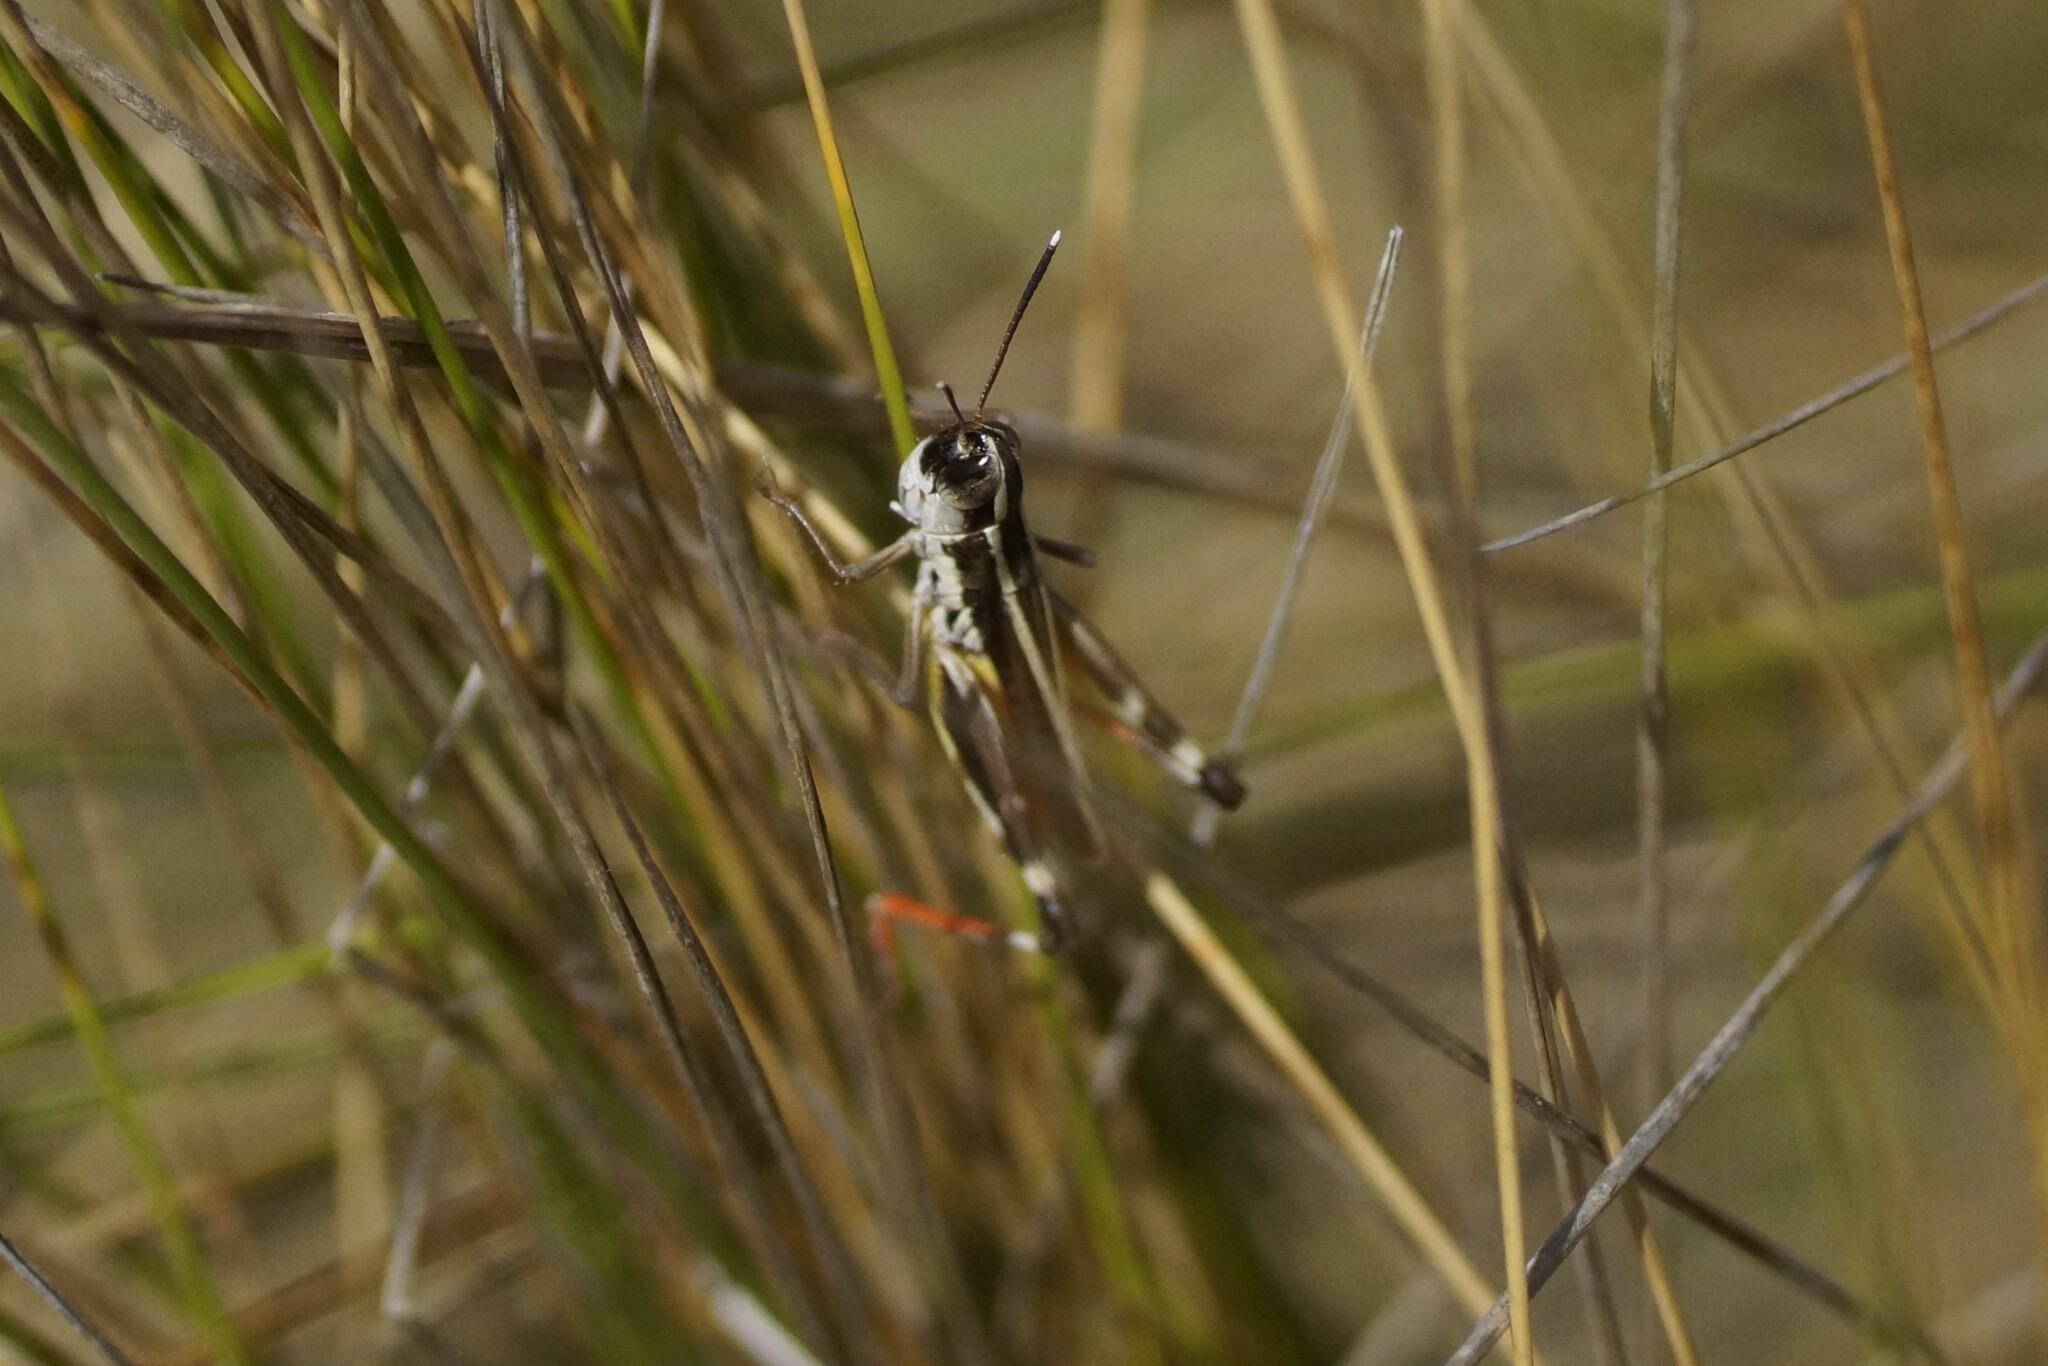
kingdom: Animalia
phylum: Arthropoda
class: Insecta
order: Orthoptera
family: Acrididae
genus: Macrotona
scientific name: Macrotona australis
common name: Common macrotona
